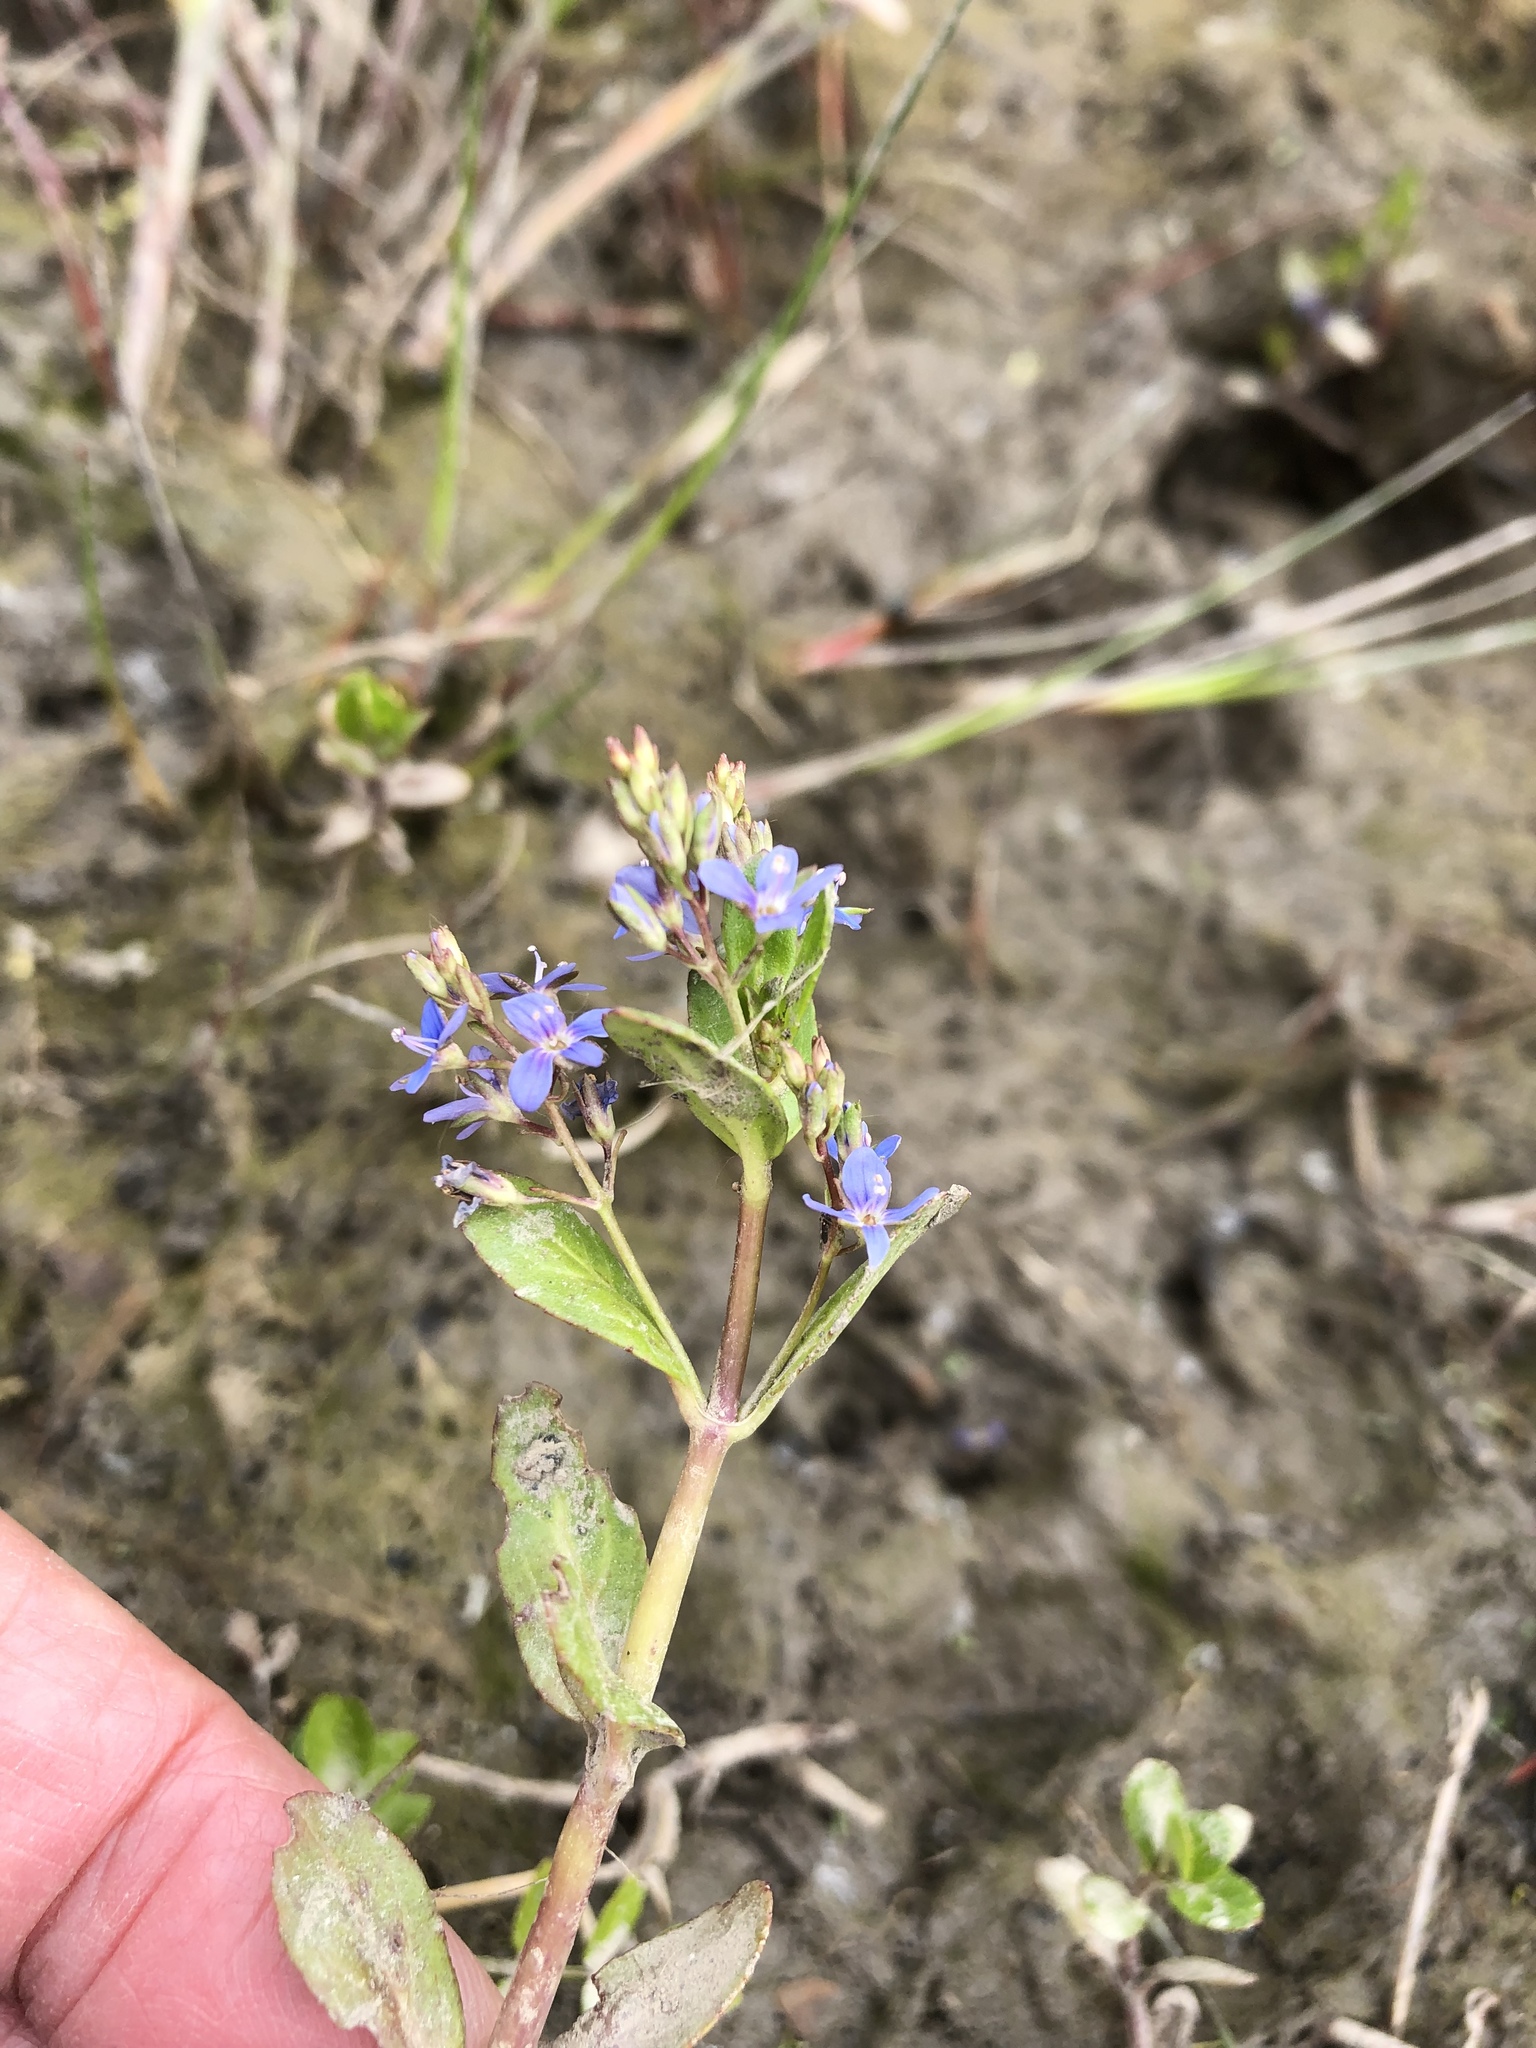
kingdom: Plantae
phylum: Tracheophyta
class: Magnoliopsida
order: Lamiales
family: Plantaginaceae
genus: Veronica
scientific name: Veronica beccabunga
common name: Brooklime
